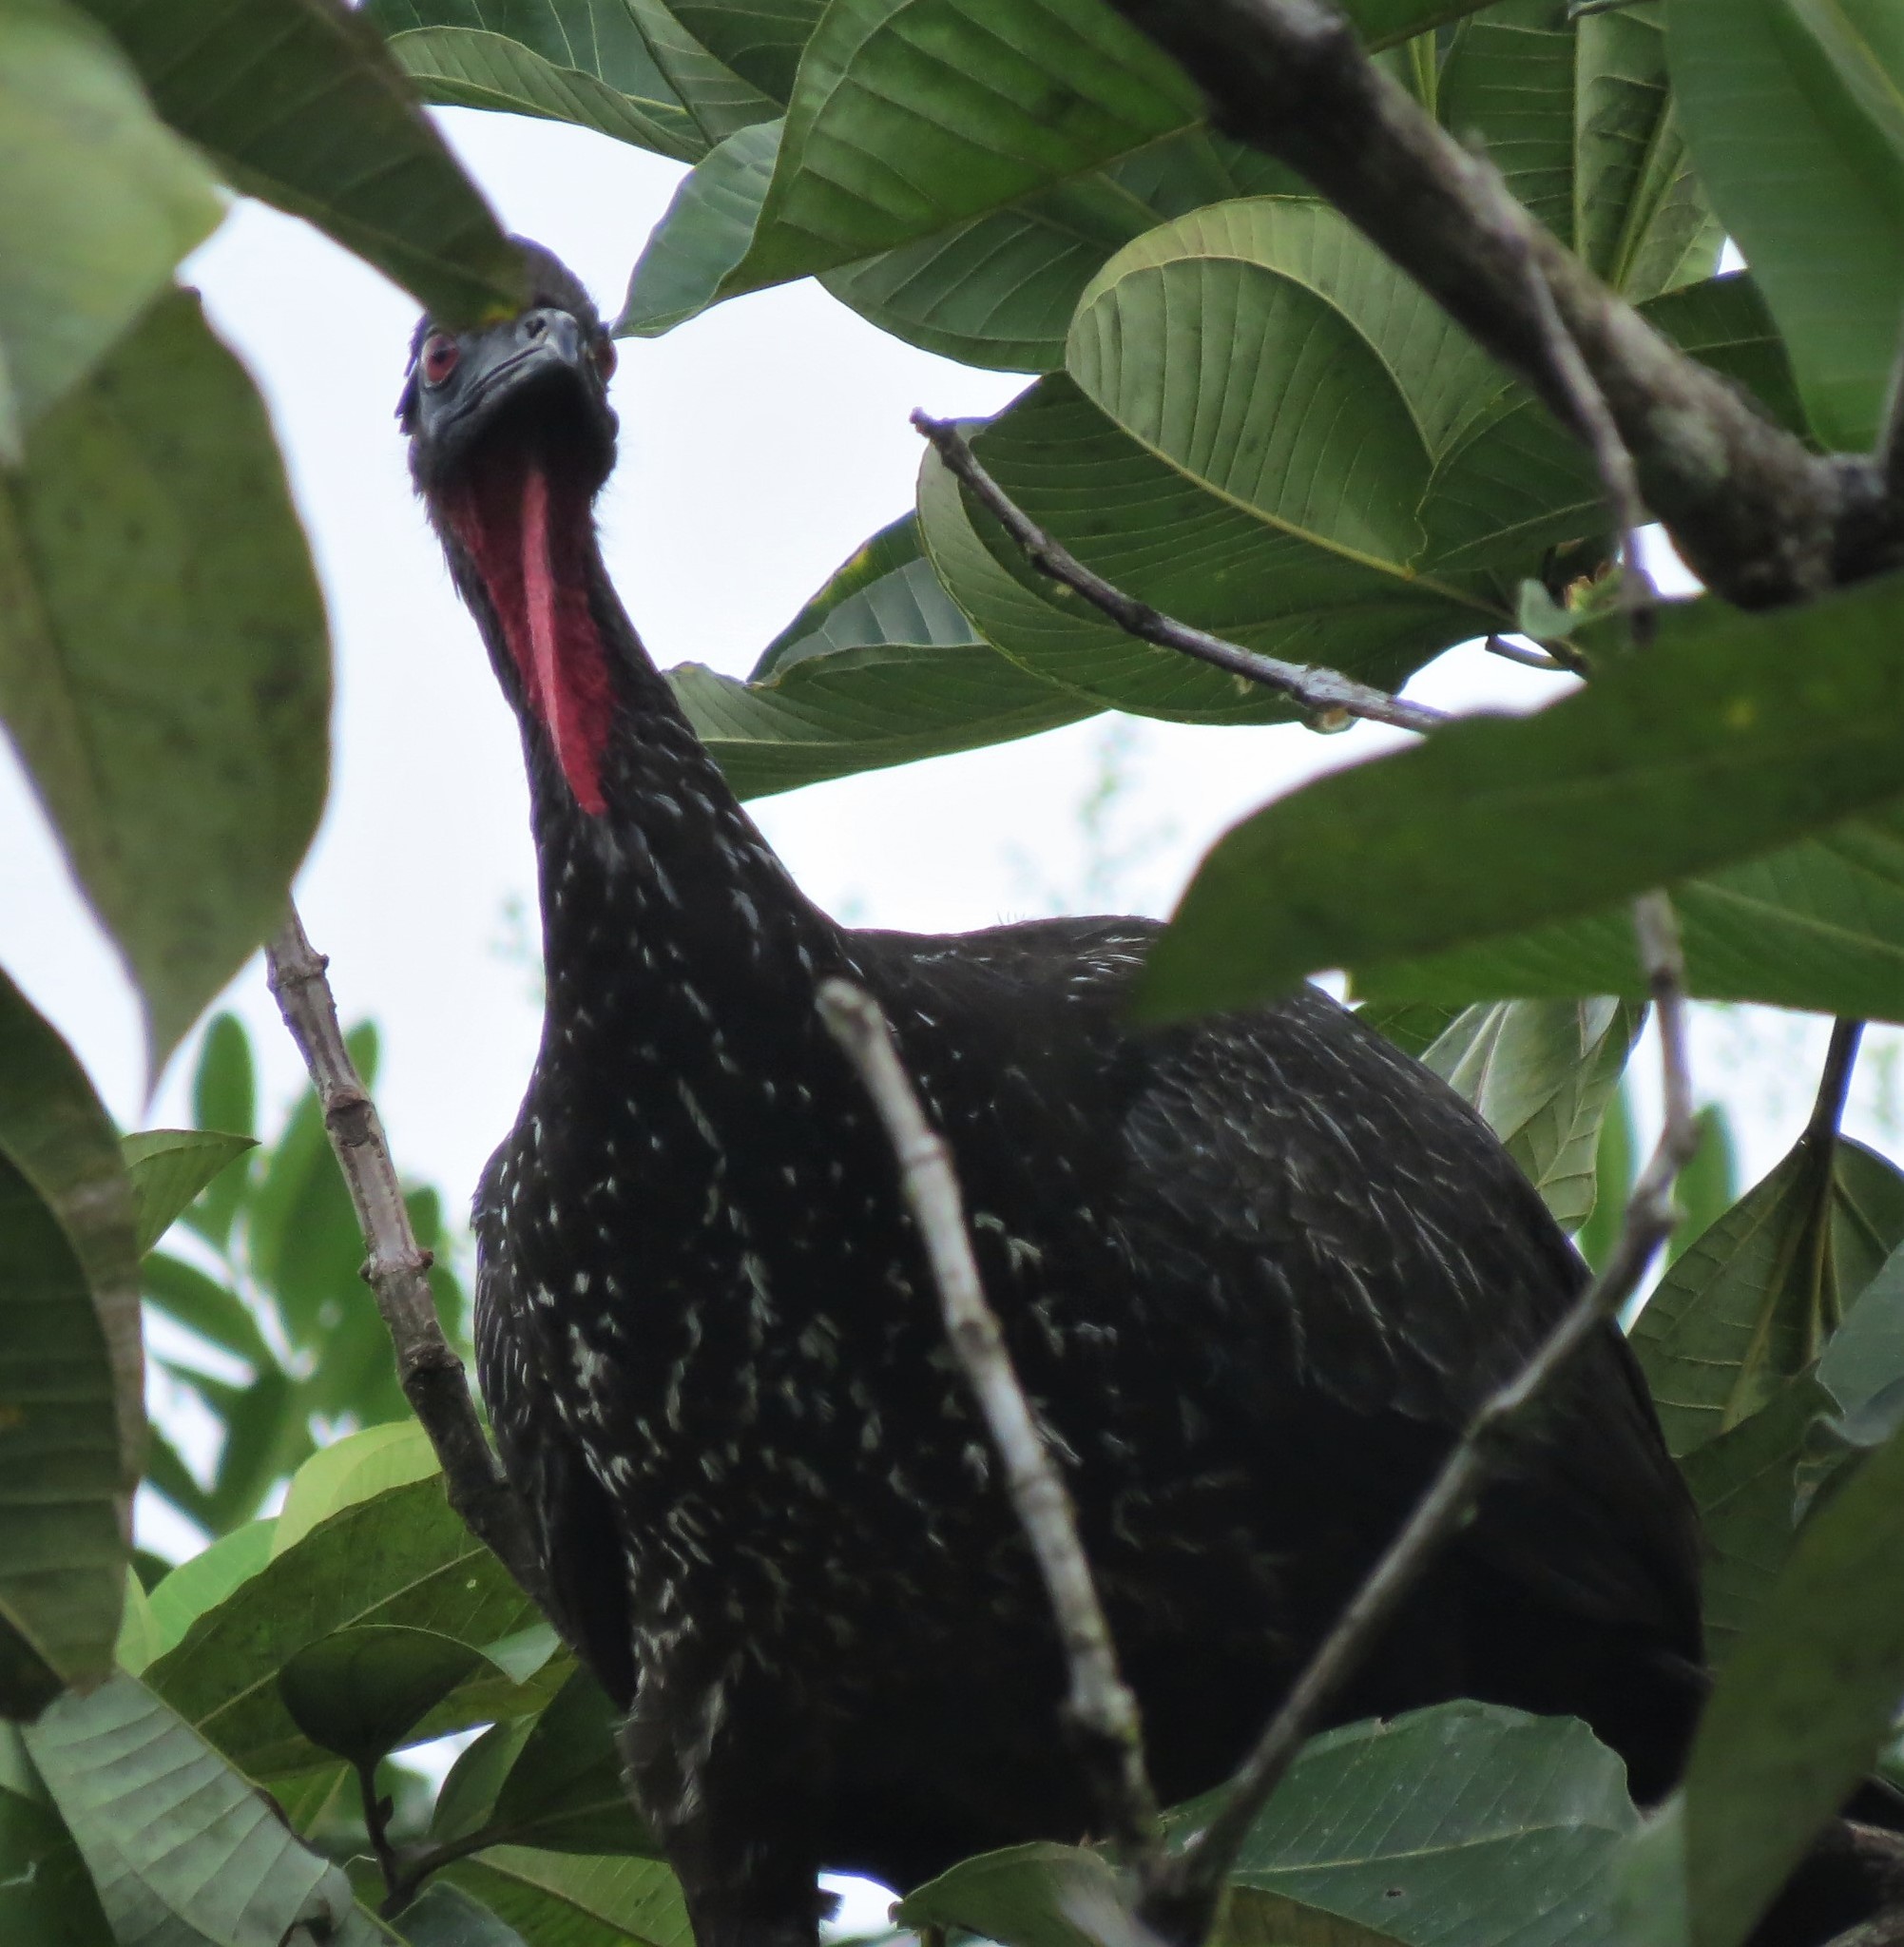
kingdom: Animalia
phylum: Chordata
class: Aves
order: Galliformes
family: Cracidae
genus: Penelope
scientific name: Penelope purpurascens
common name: Crested guan
